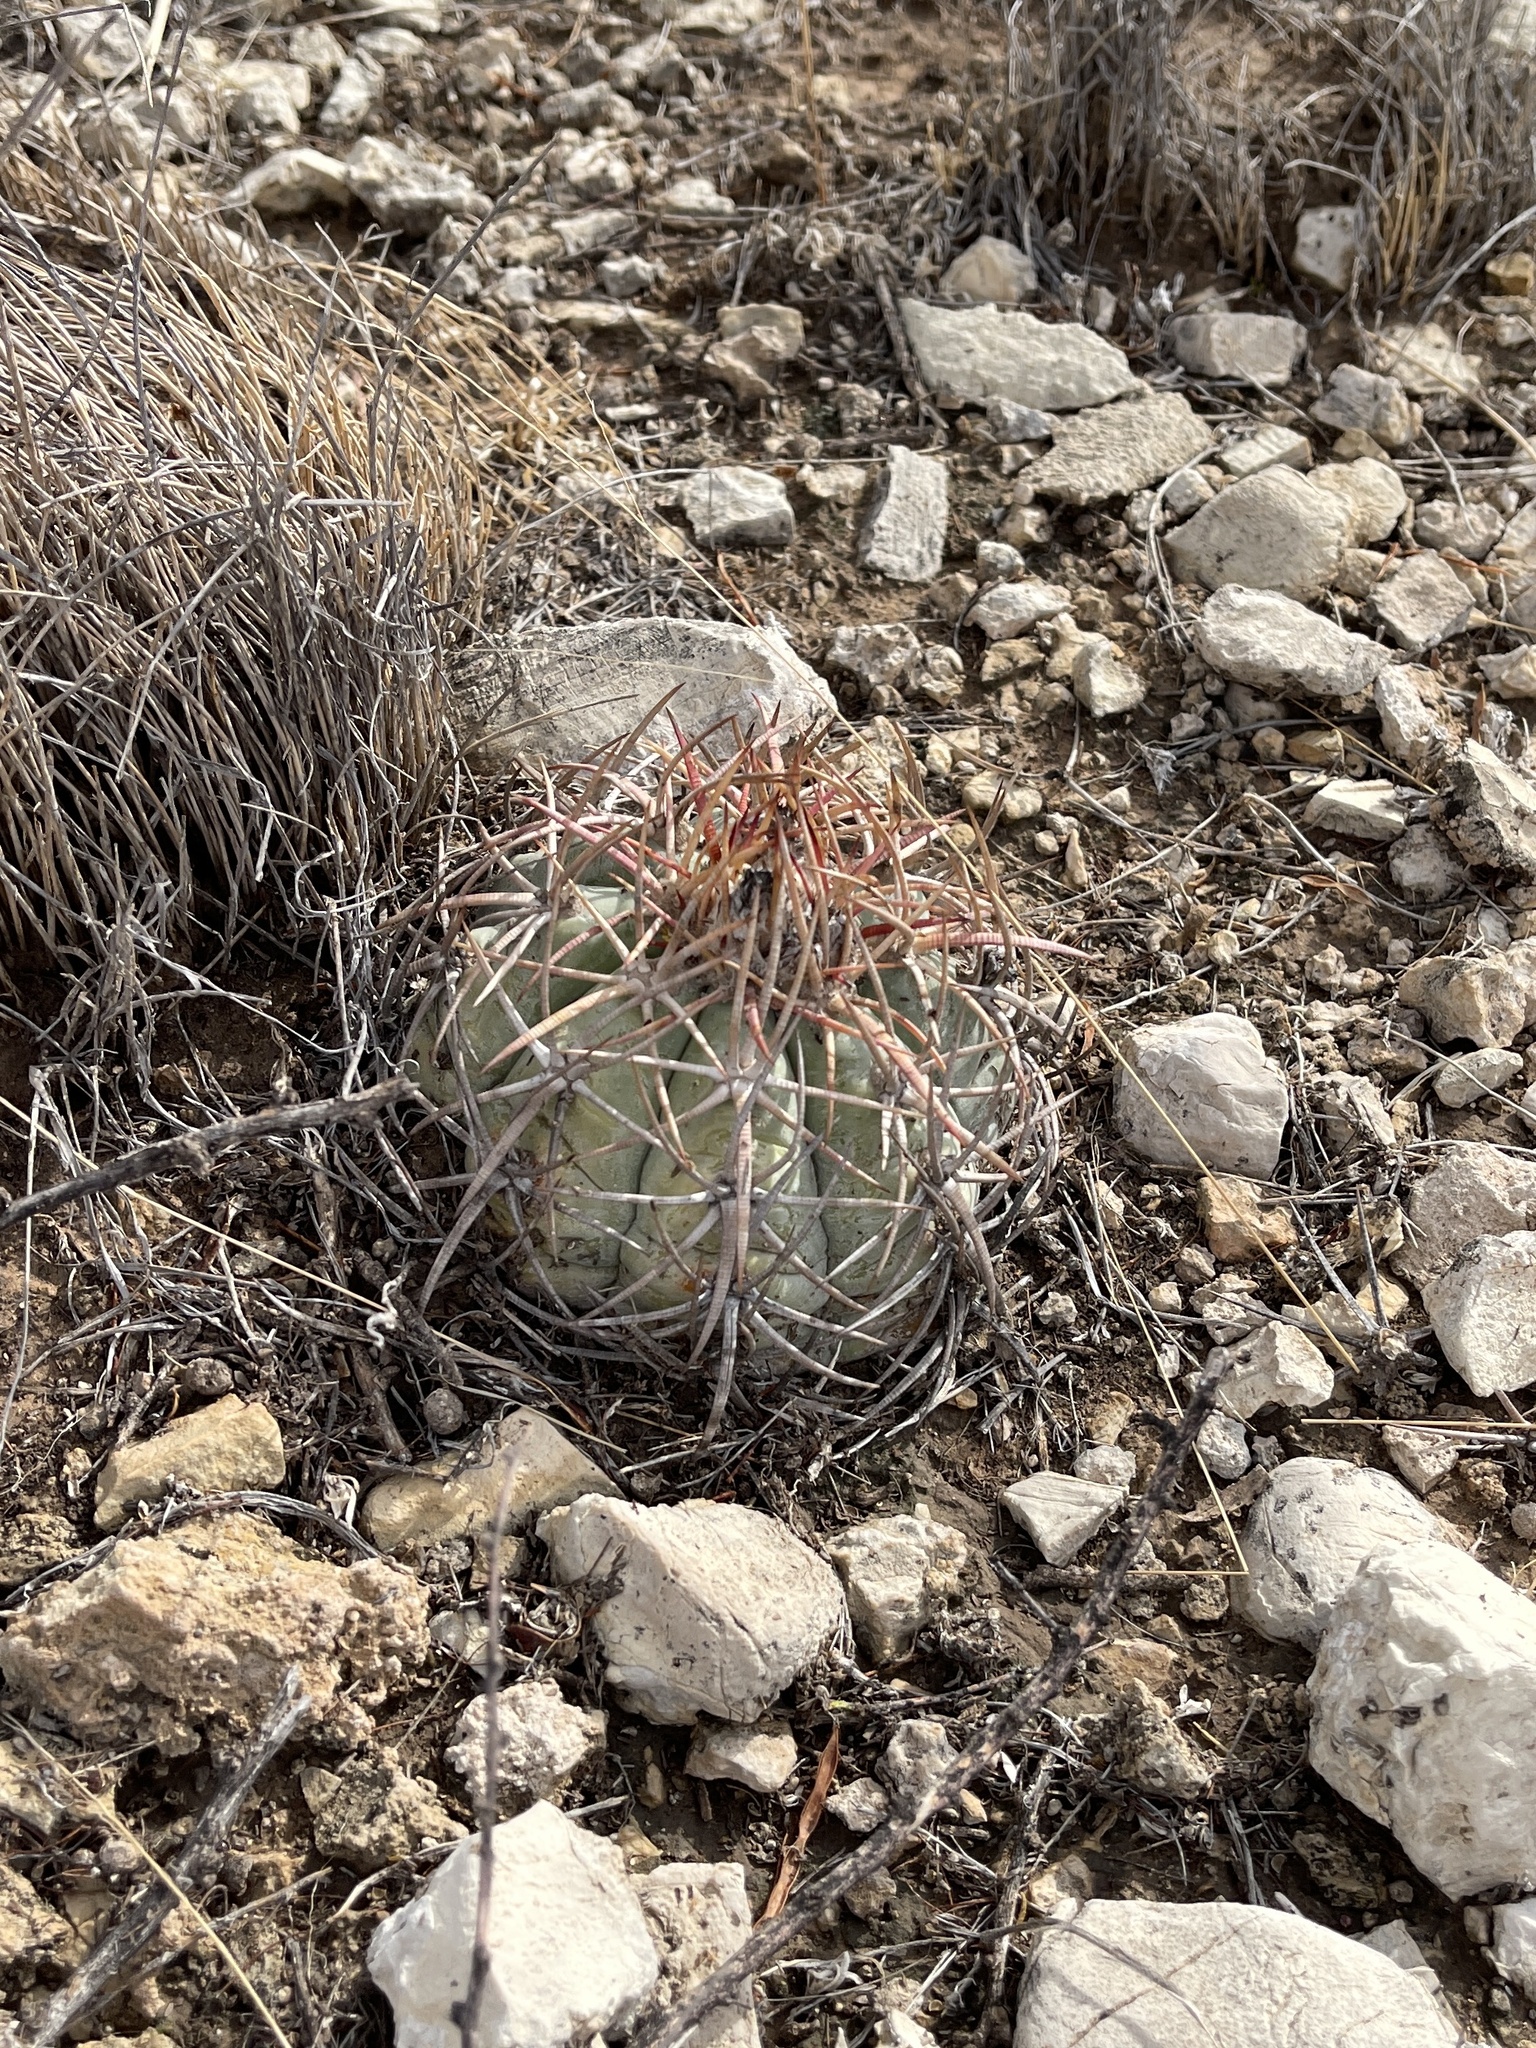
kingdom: Plantae
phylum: Tracheophyta
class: Magnoliopsida
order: Caryophyllales
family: Cactaceae
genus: Echinocactus
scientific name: Echinocactus horizonthalonius
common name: Devilshead
